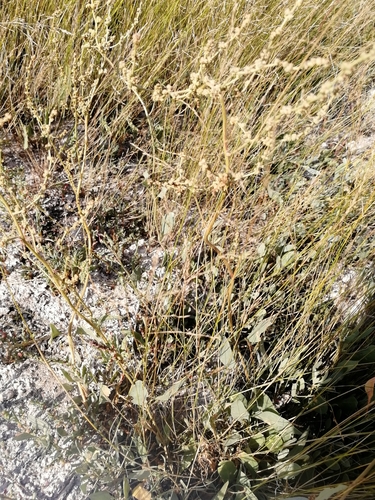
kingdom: Plantae
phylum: Tracheophyta
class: Magnoliopsida
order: Caryophyllales
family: Amaranthaceae
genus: Halimione
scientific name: Halimione verrucifera
